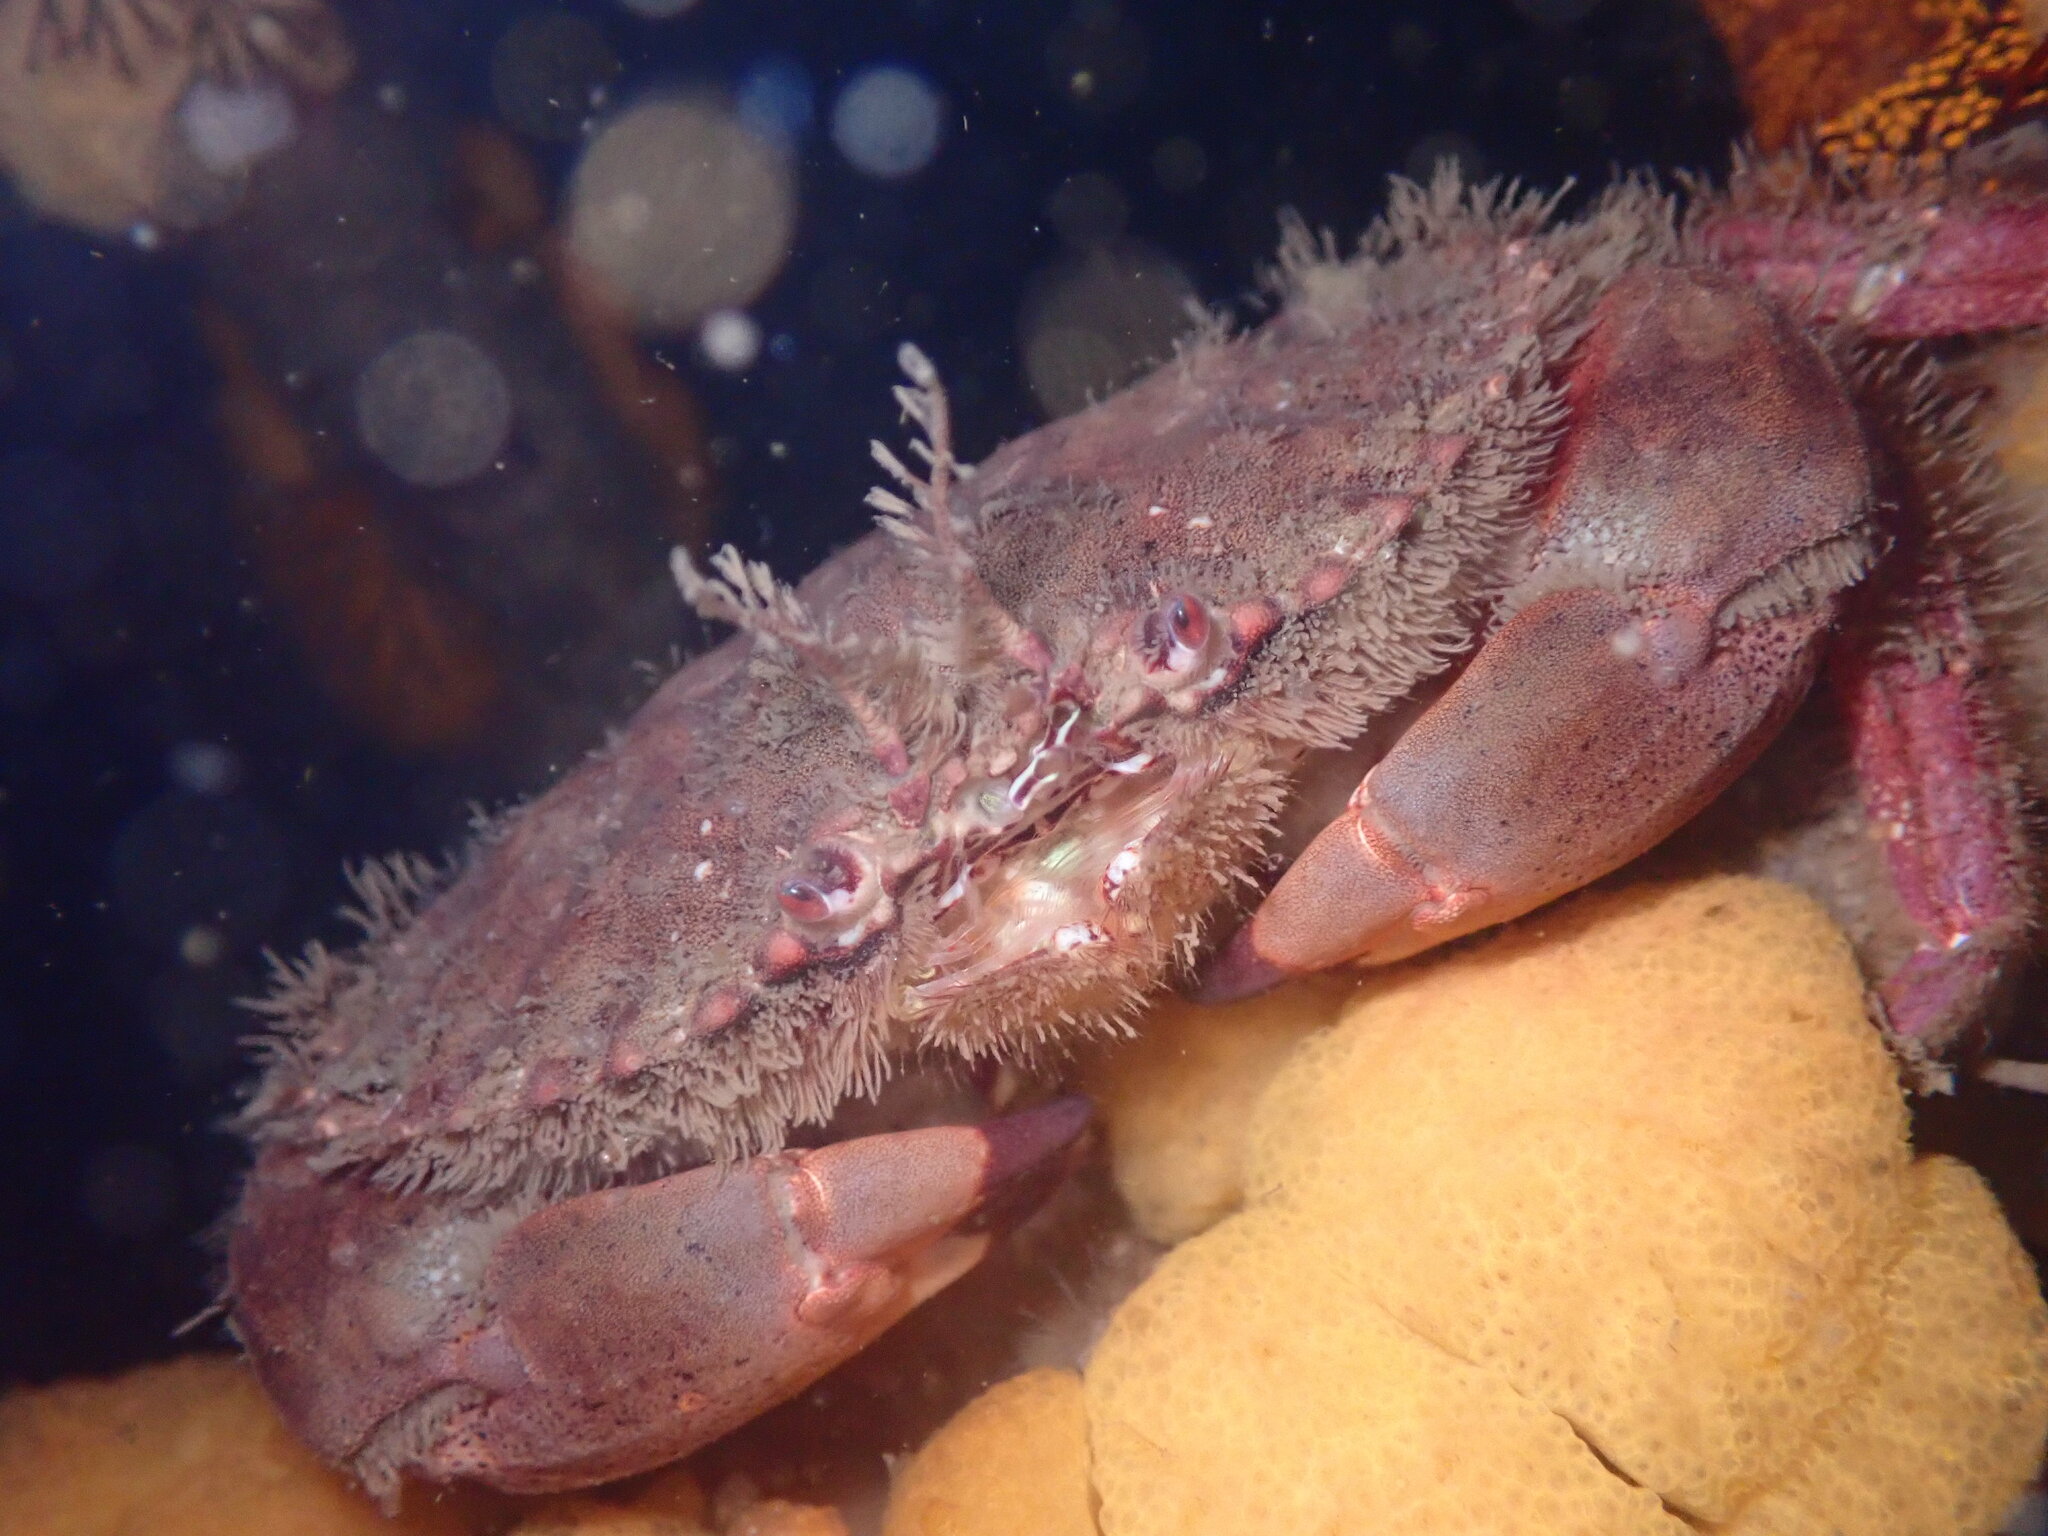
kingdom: Animalia
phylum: Arthropoda
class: Malacostraca
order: Decapoda
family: Cancridae
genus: Romaleon
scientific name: Romaleon antennarium
